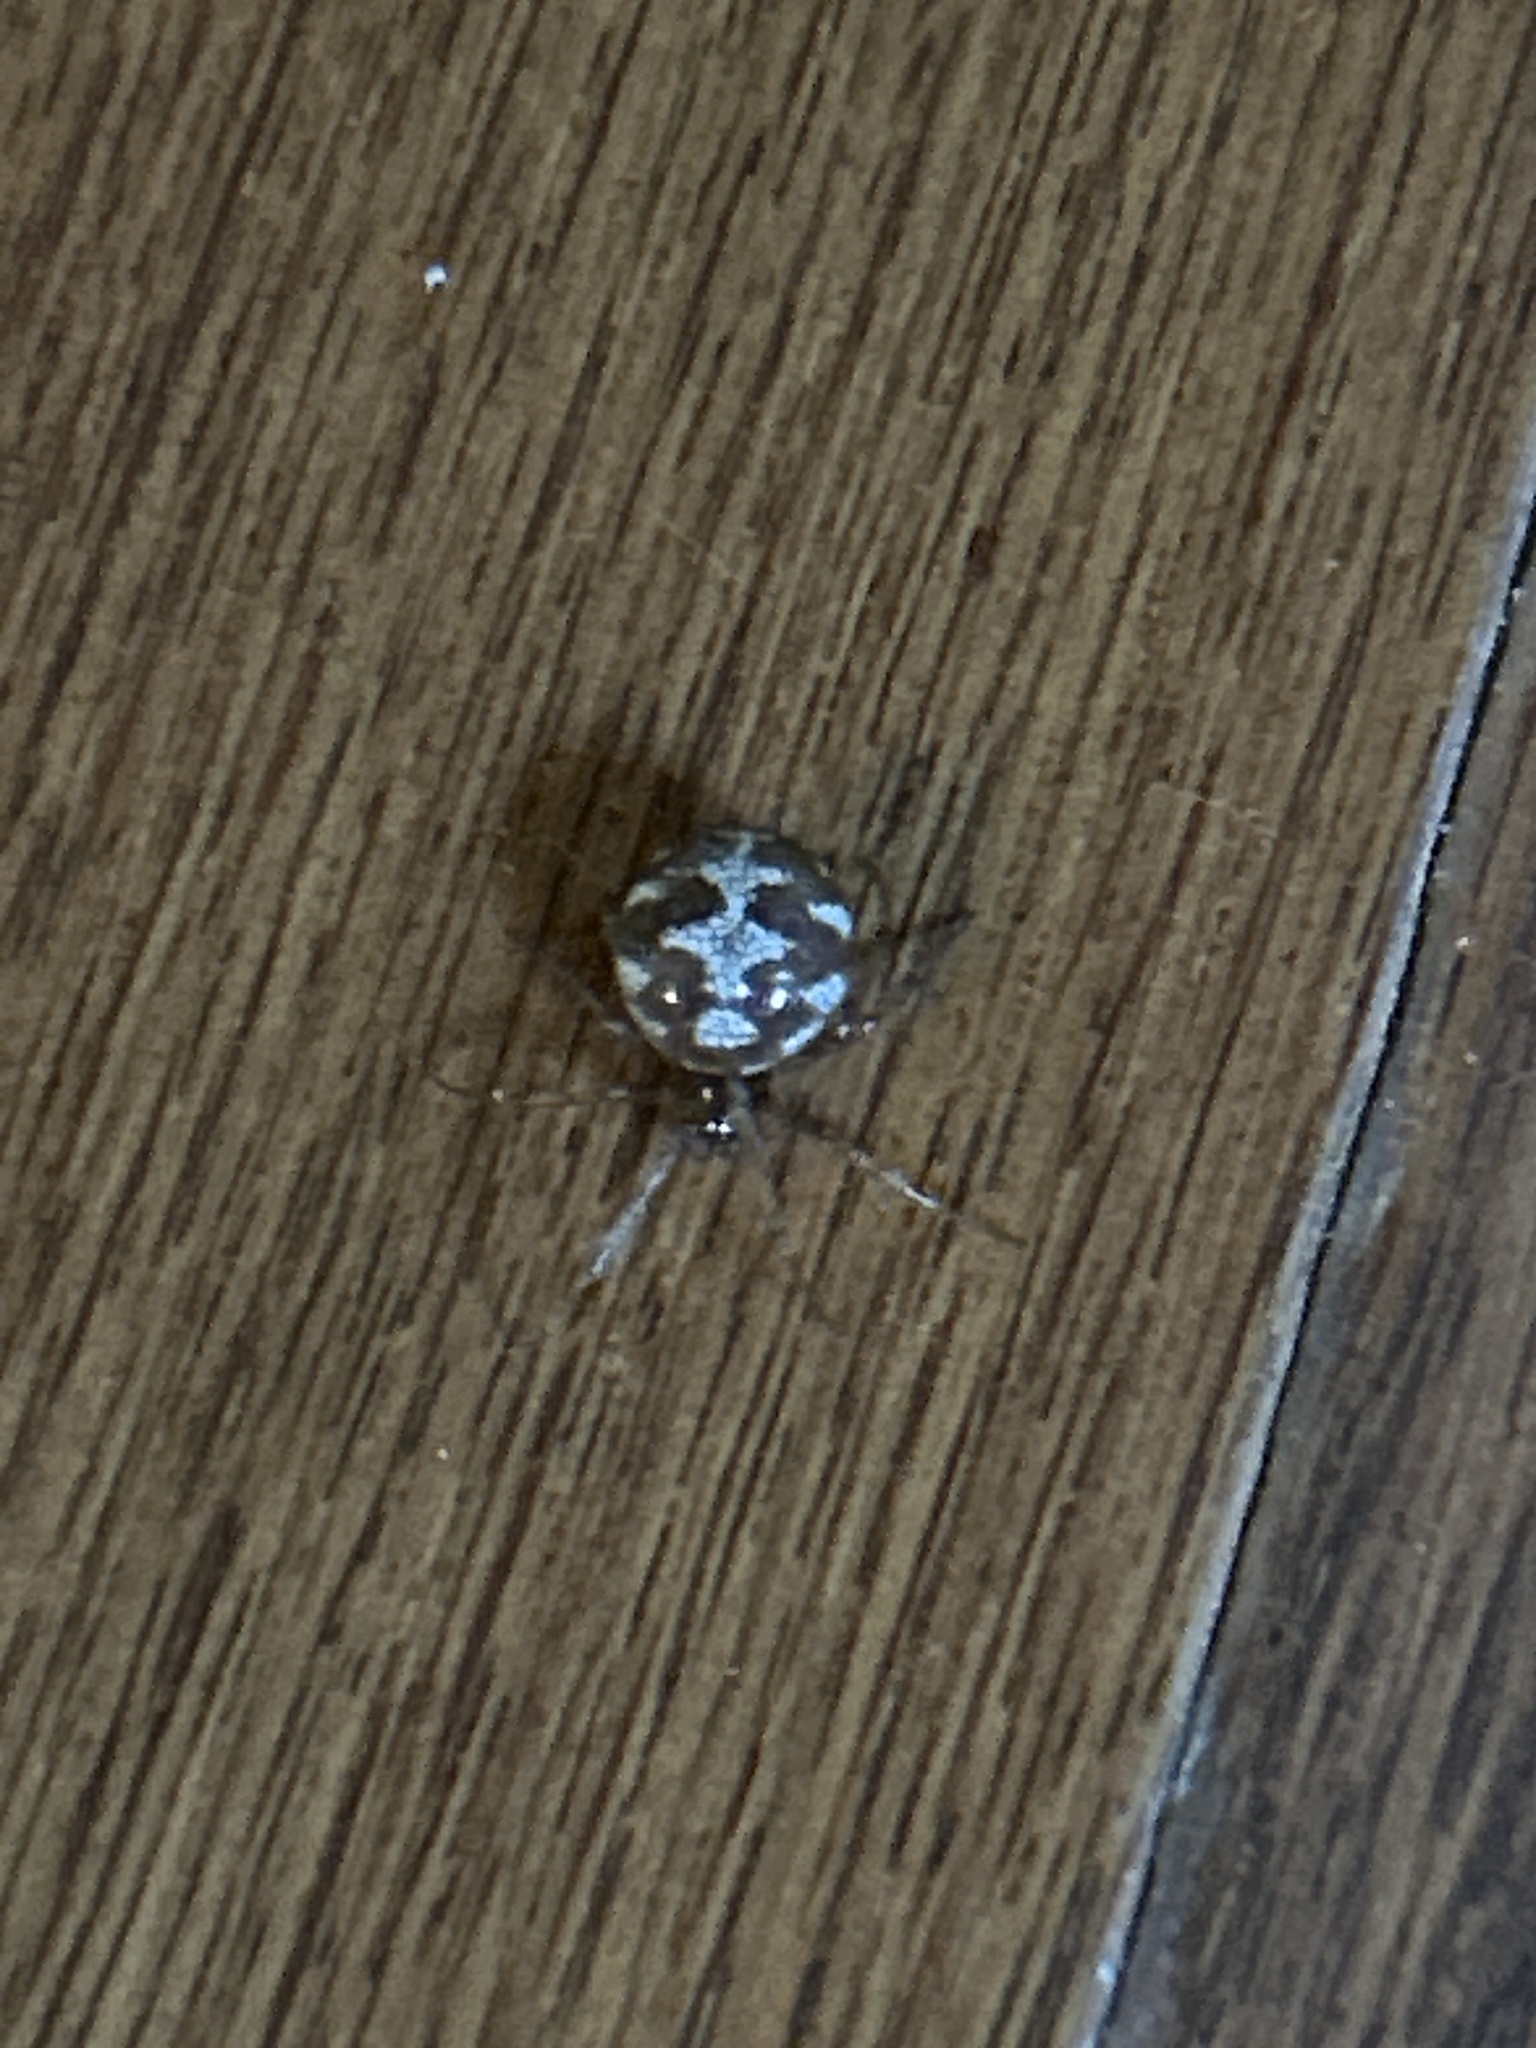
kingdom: Animalia
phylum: Arthropoda
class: Arachnida
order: Araneae
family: Theridiidae
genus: Steatoda
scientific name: Steatoda triangulosa
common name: Triangulate bud spider
